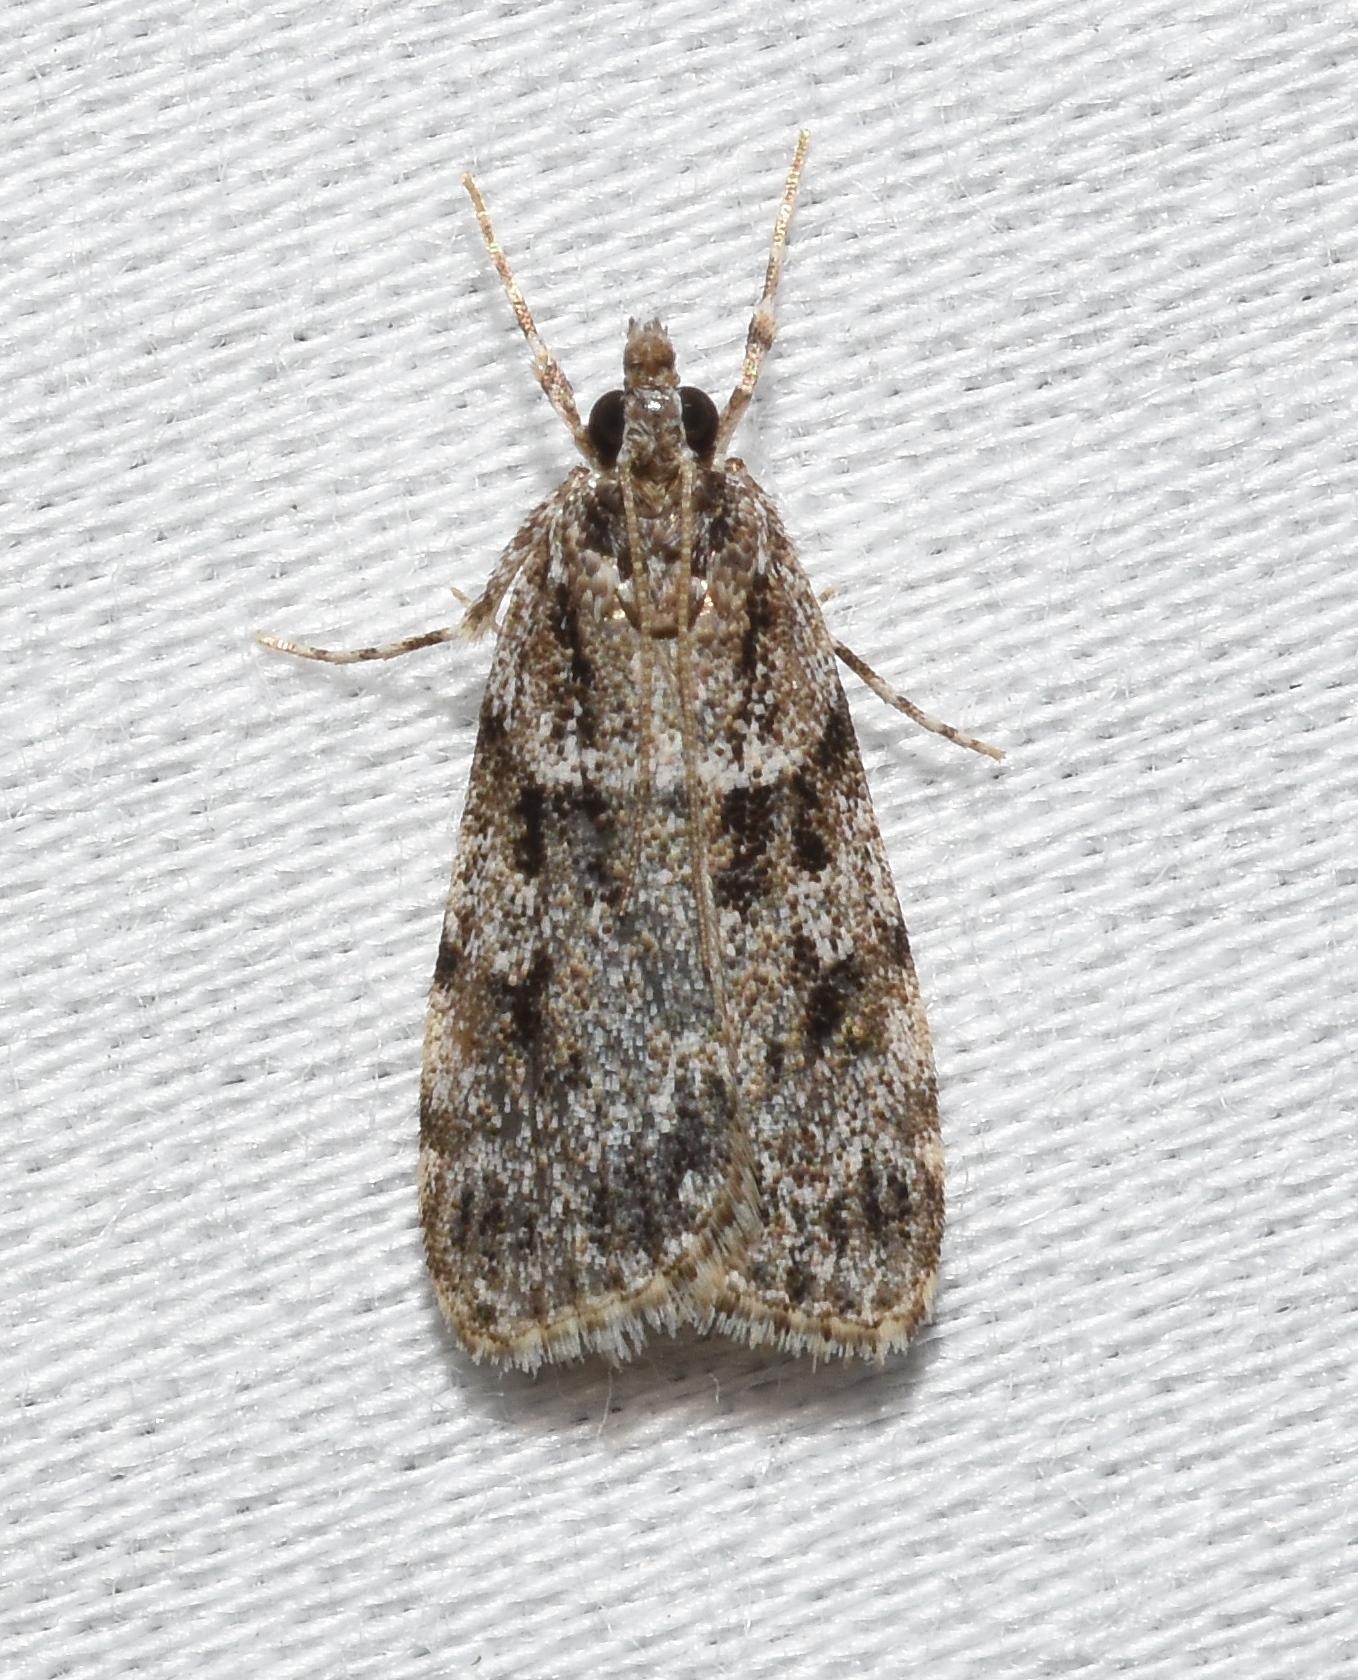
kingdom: Animalia
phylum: Arthropoda
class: Insecta
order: Lepidoptera
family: Crambidae
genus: Scoparia
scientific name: Scoparia biplagialis
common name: Double-striped scoparia moth
